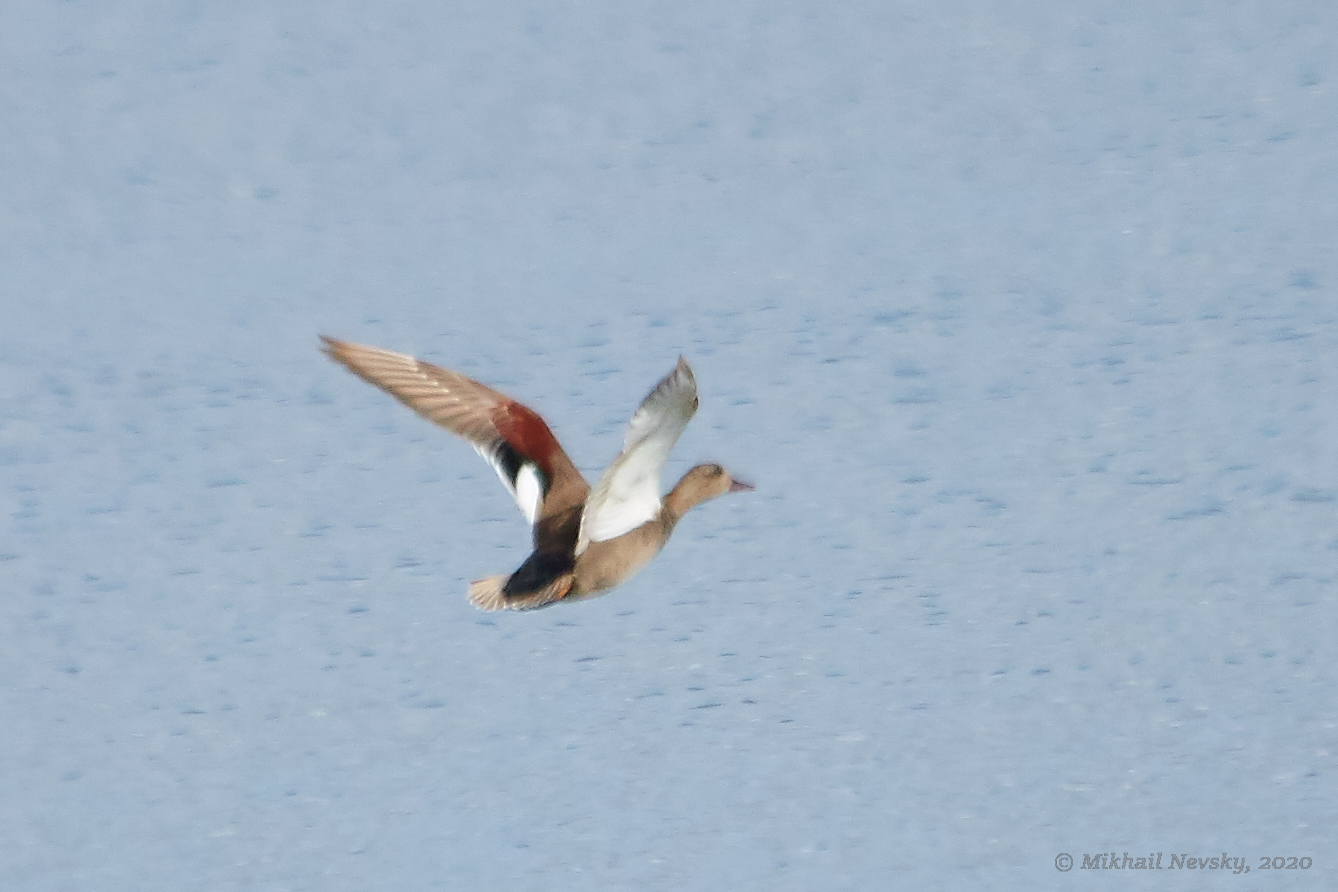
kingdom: Animalia
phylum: Chordata
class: Aves
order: Anseriformes
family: Anatidae
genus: Mareca
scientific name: Mareca strepera
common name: Gadwall
